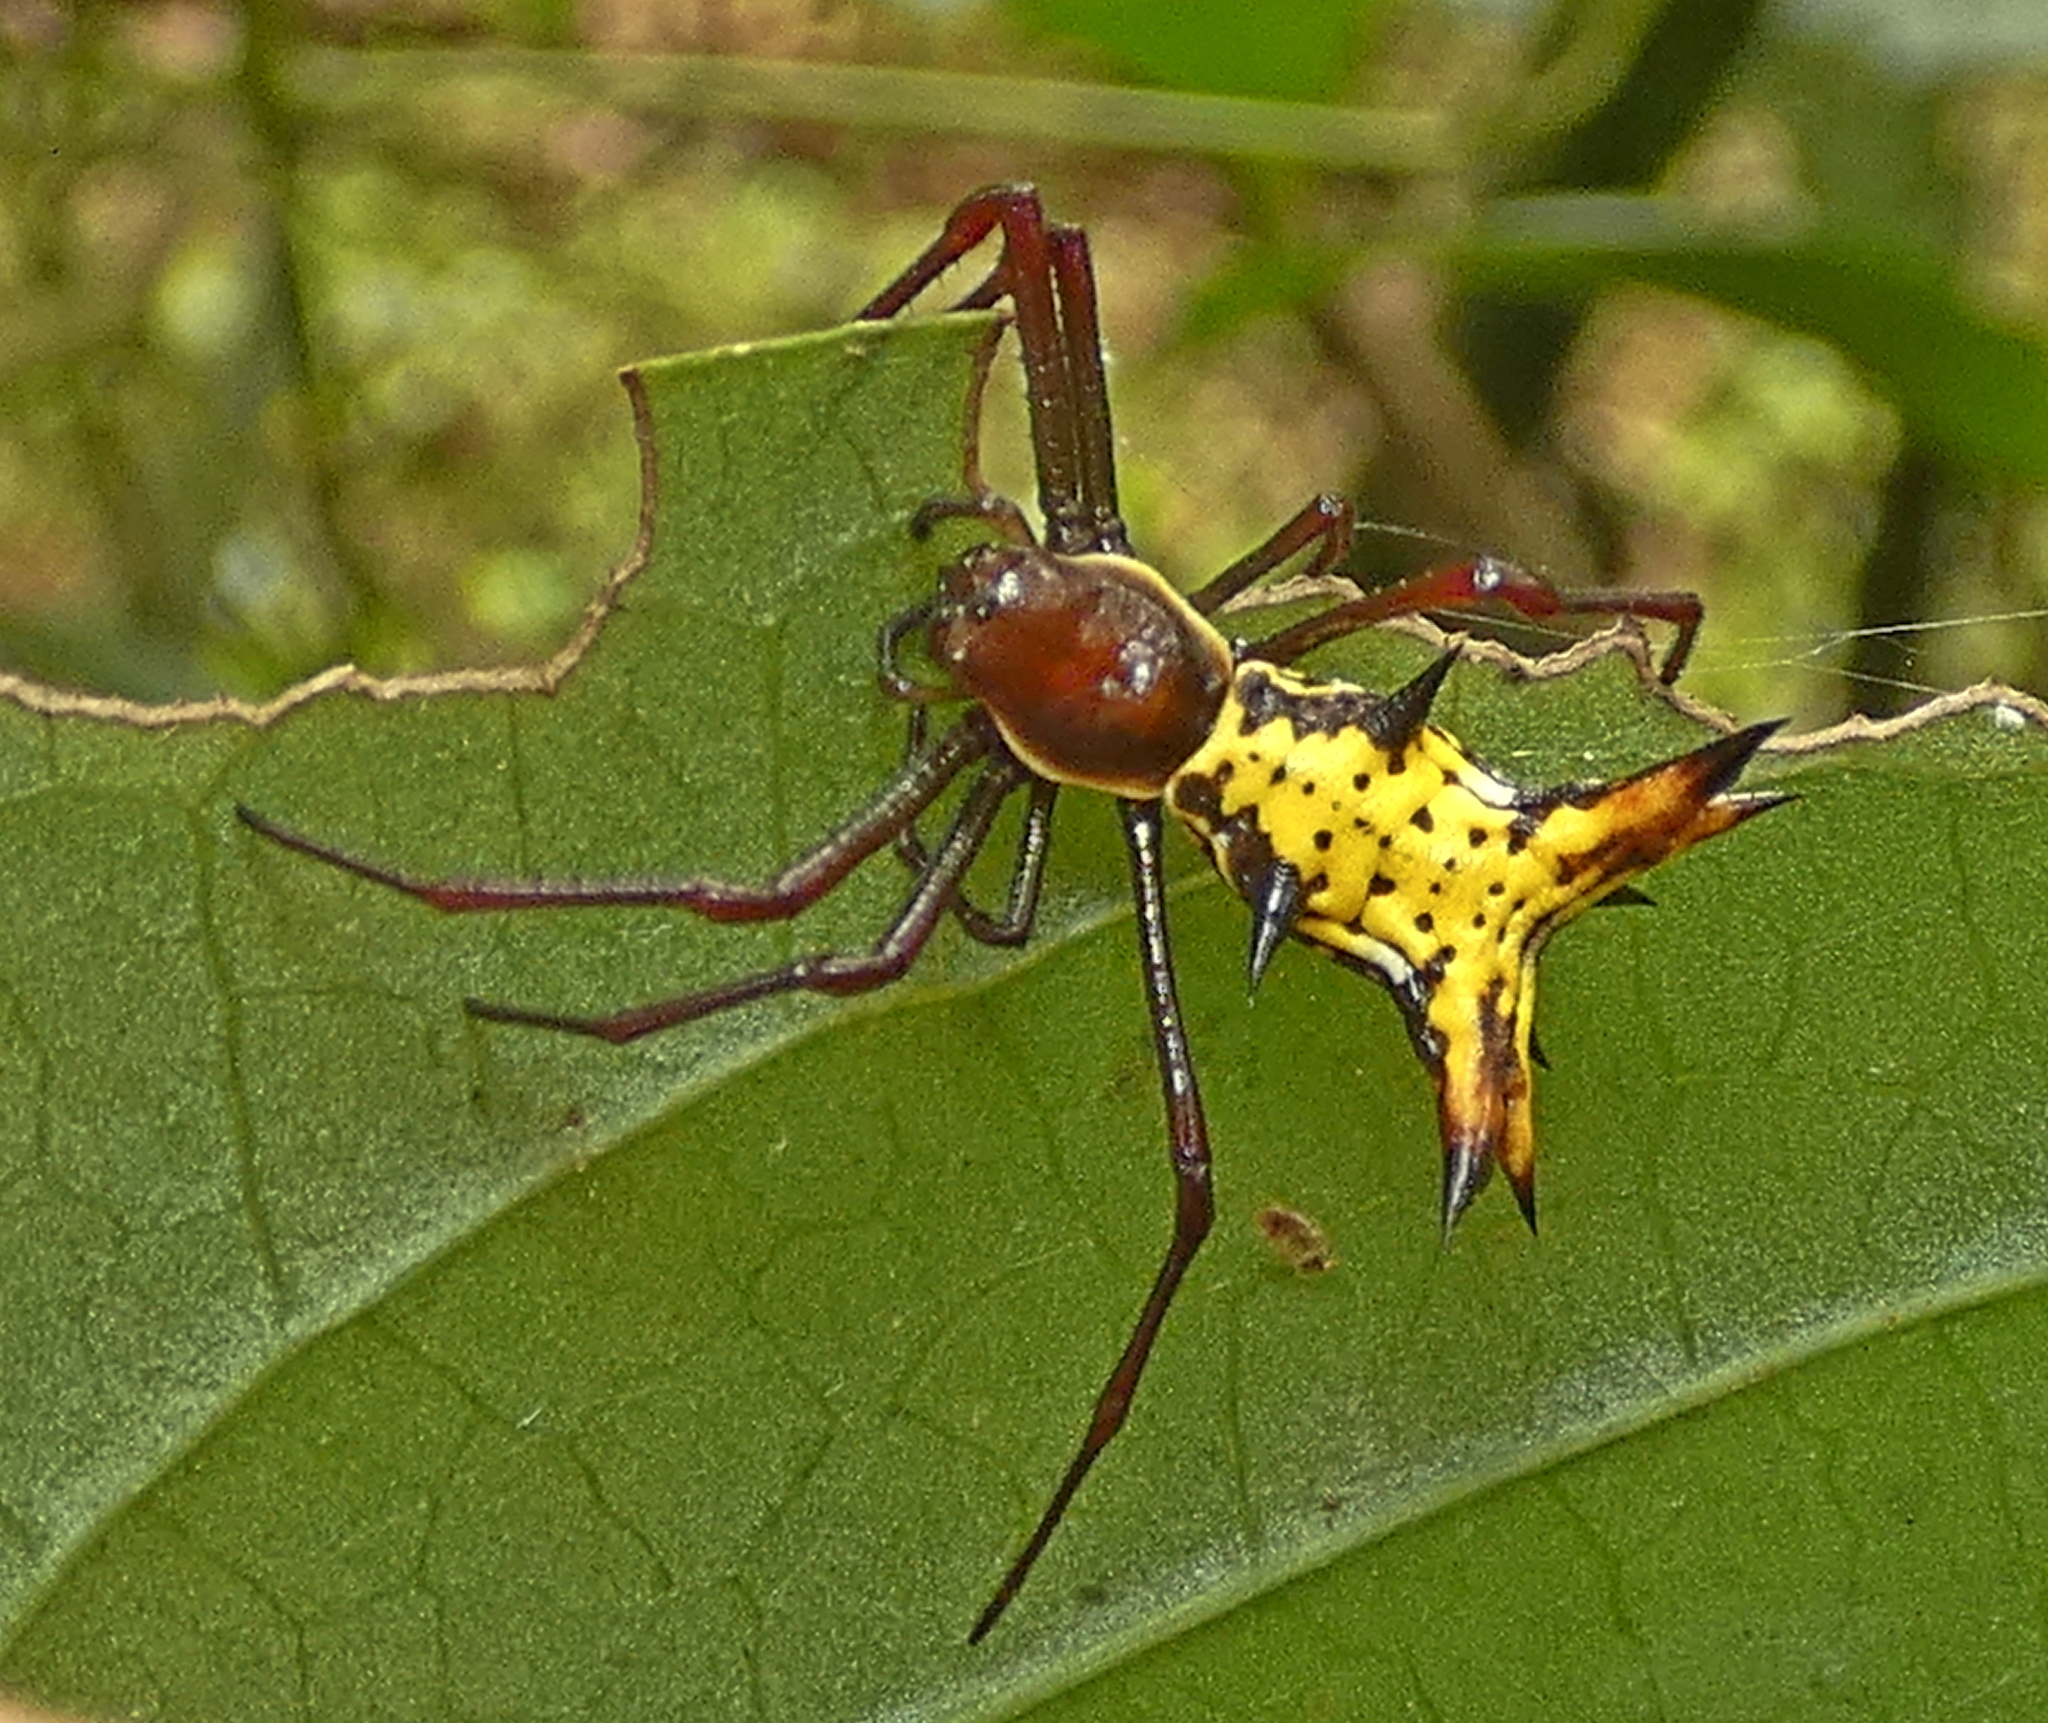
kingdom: Animalia
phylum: Arthropoda
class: Arachnida
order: Araneae
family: Araneidae
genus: Micrathena
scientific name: Micrathena fissispina
